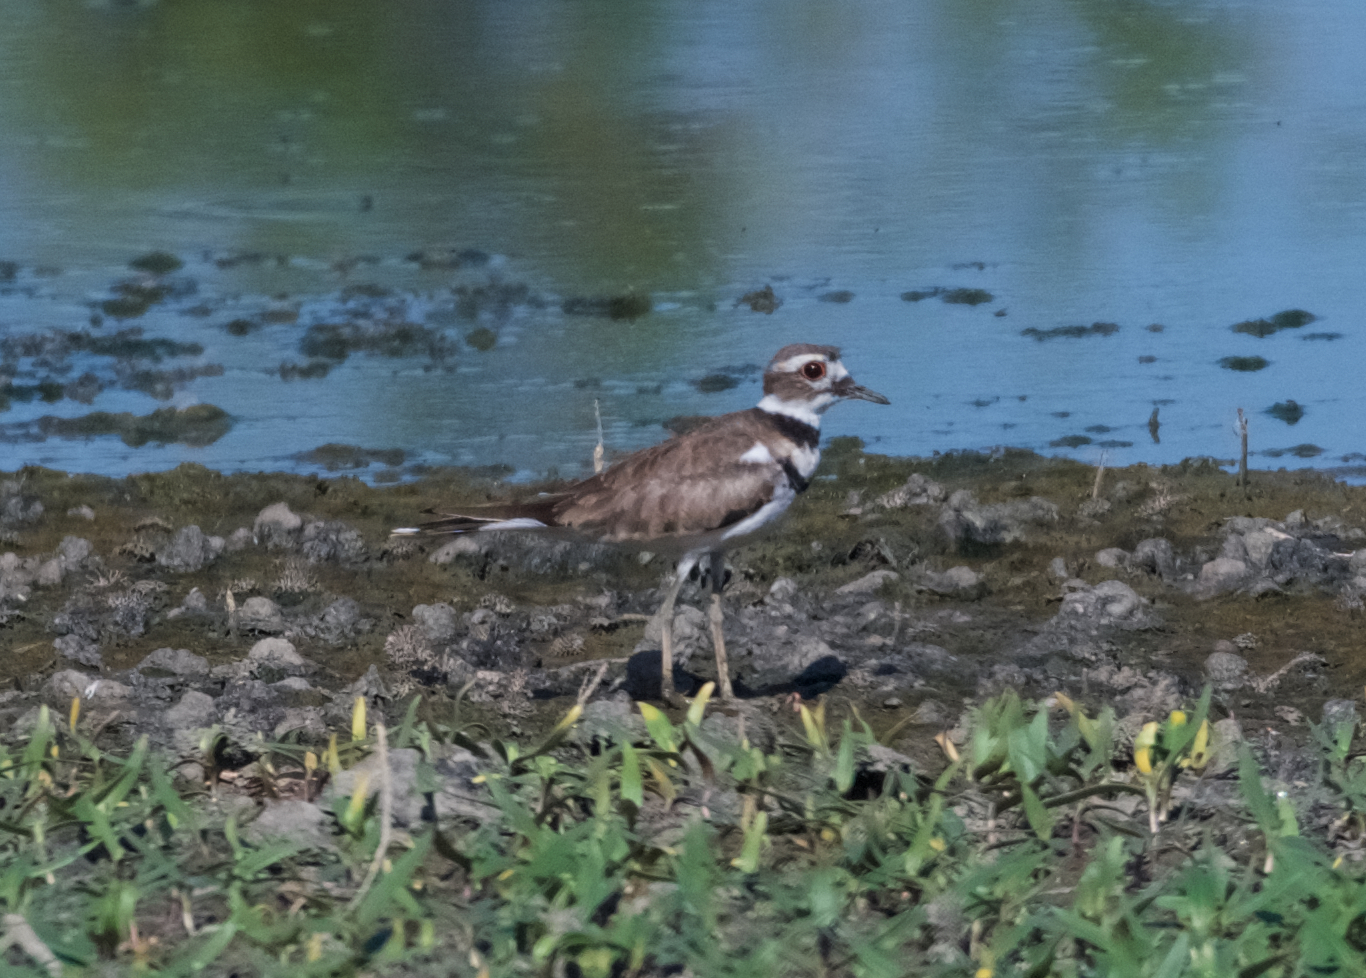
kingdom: Animalia
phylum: Chordata
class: Aves
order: Charadriiformes
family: Charadriidae
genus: Charadrius
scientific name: Charadrius vociferus
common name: Killdeer
